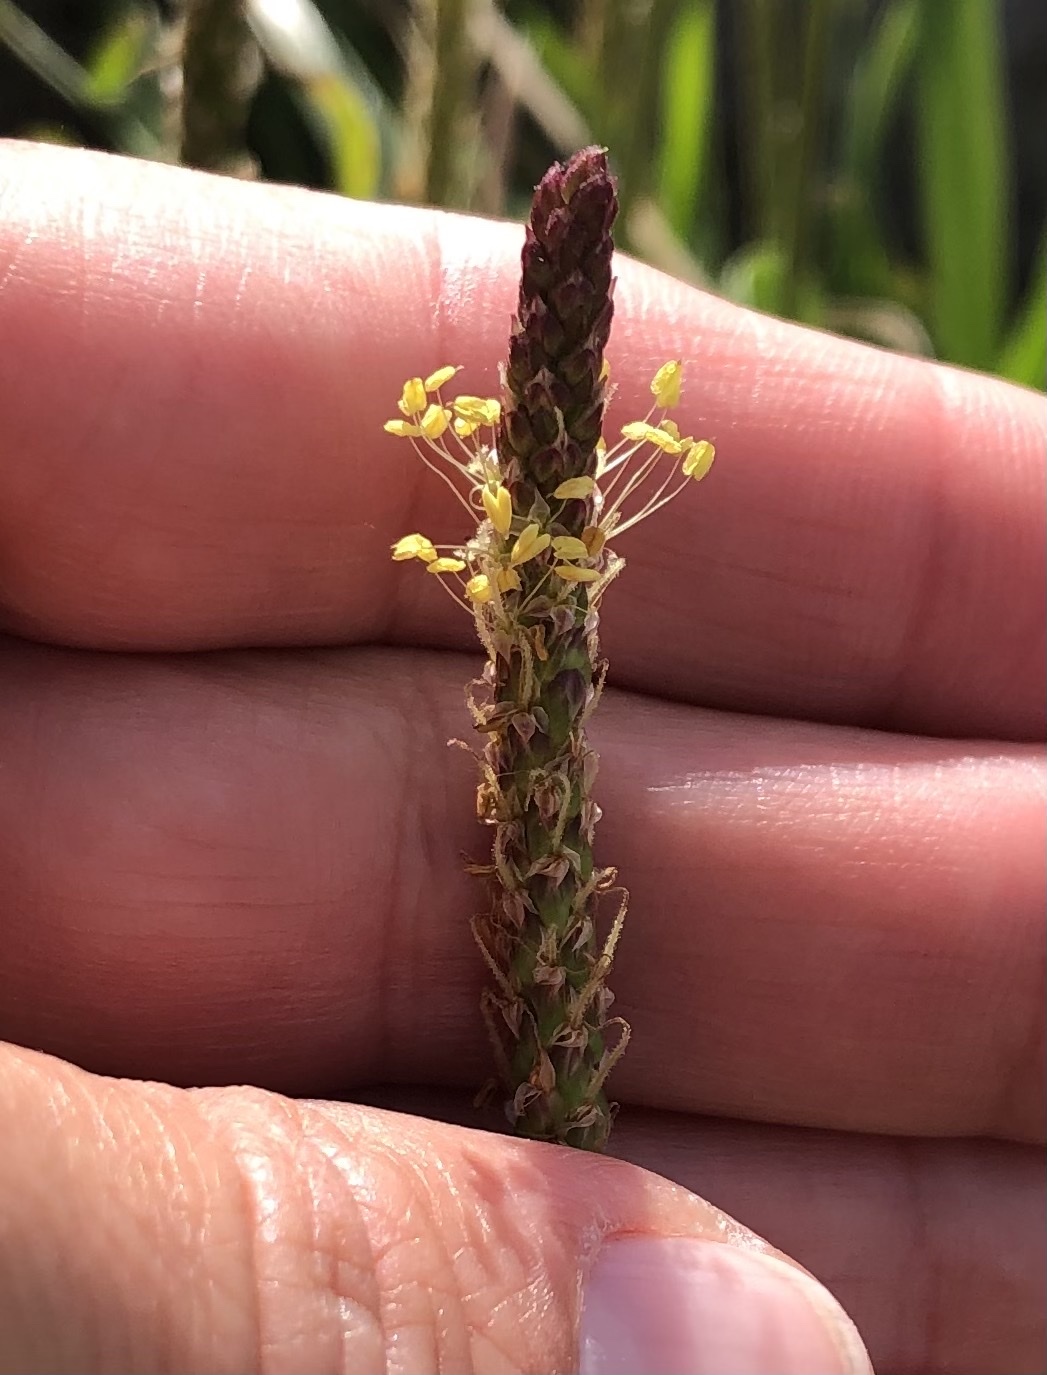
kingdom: Plantae
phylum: Tracheophyta
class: Magnoliopsida
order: Lamiales
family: Plantaginaceae
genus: Plantago
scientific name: Plantago maritima
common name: Sea plantain
